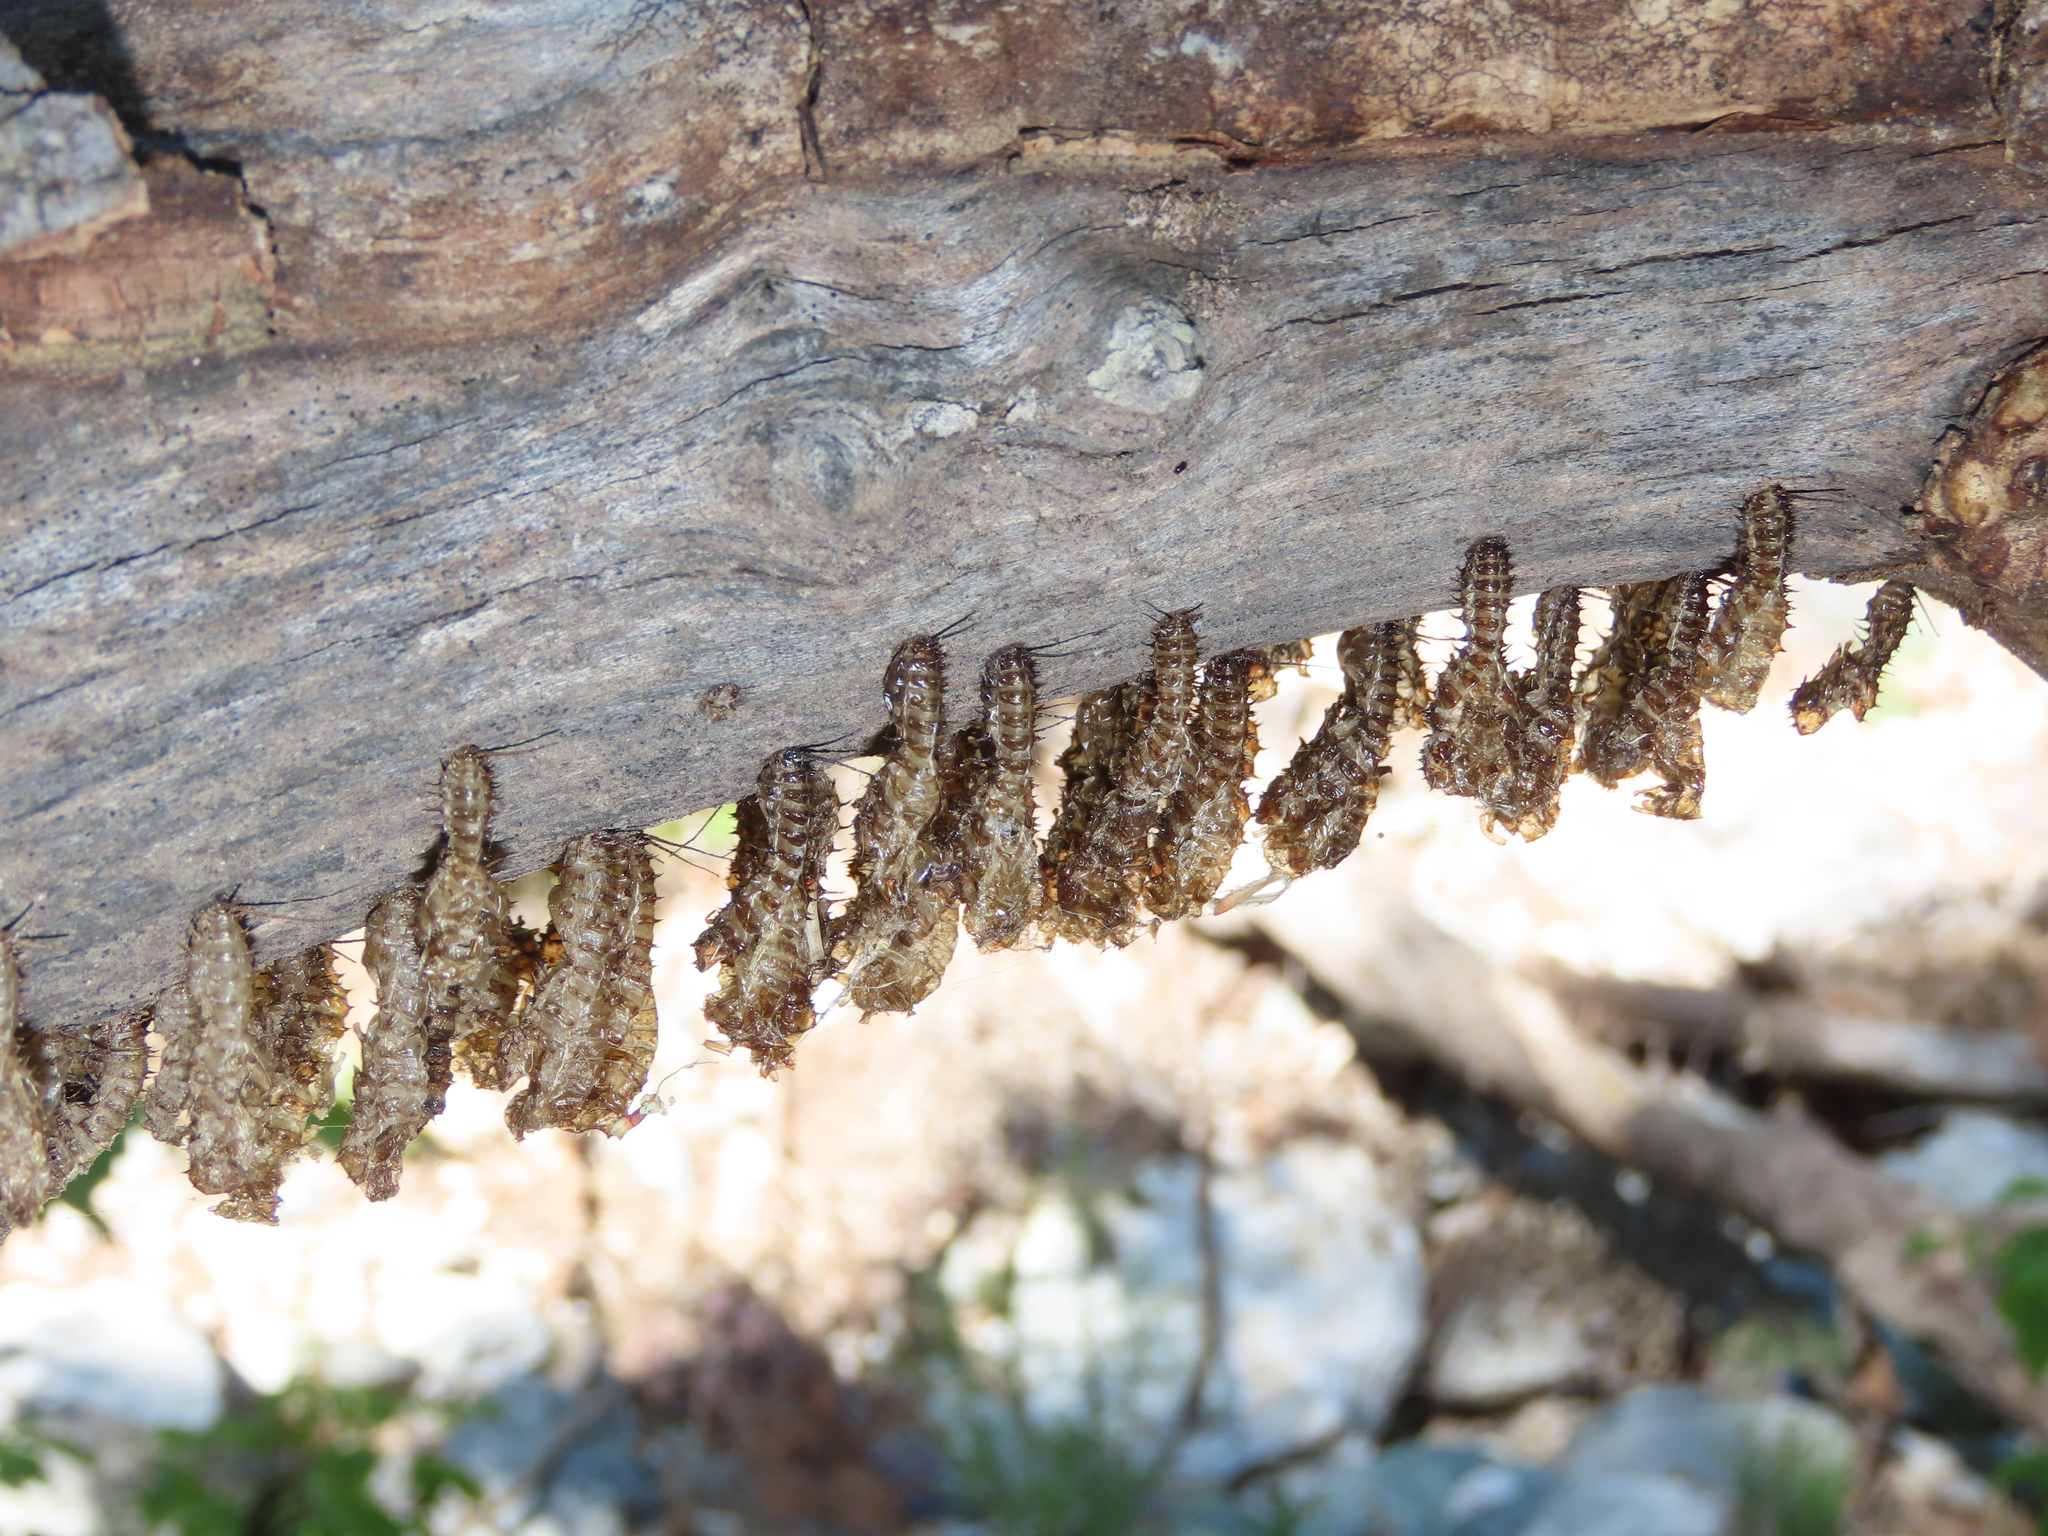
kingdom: Animalia
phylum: Arthropoda
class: Insecta
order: Coleoptera
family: Erotylidae
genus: Gibbifer
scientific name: Gibbifer californicus
